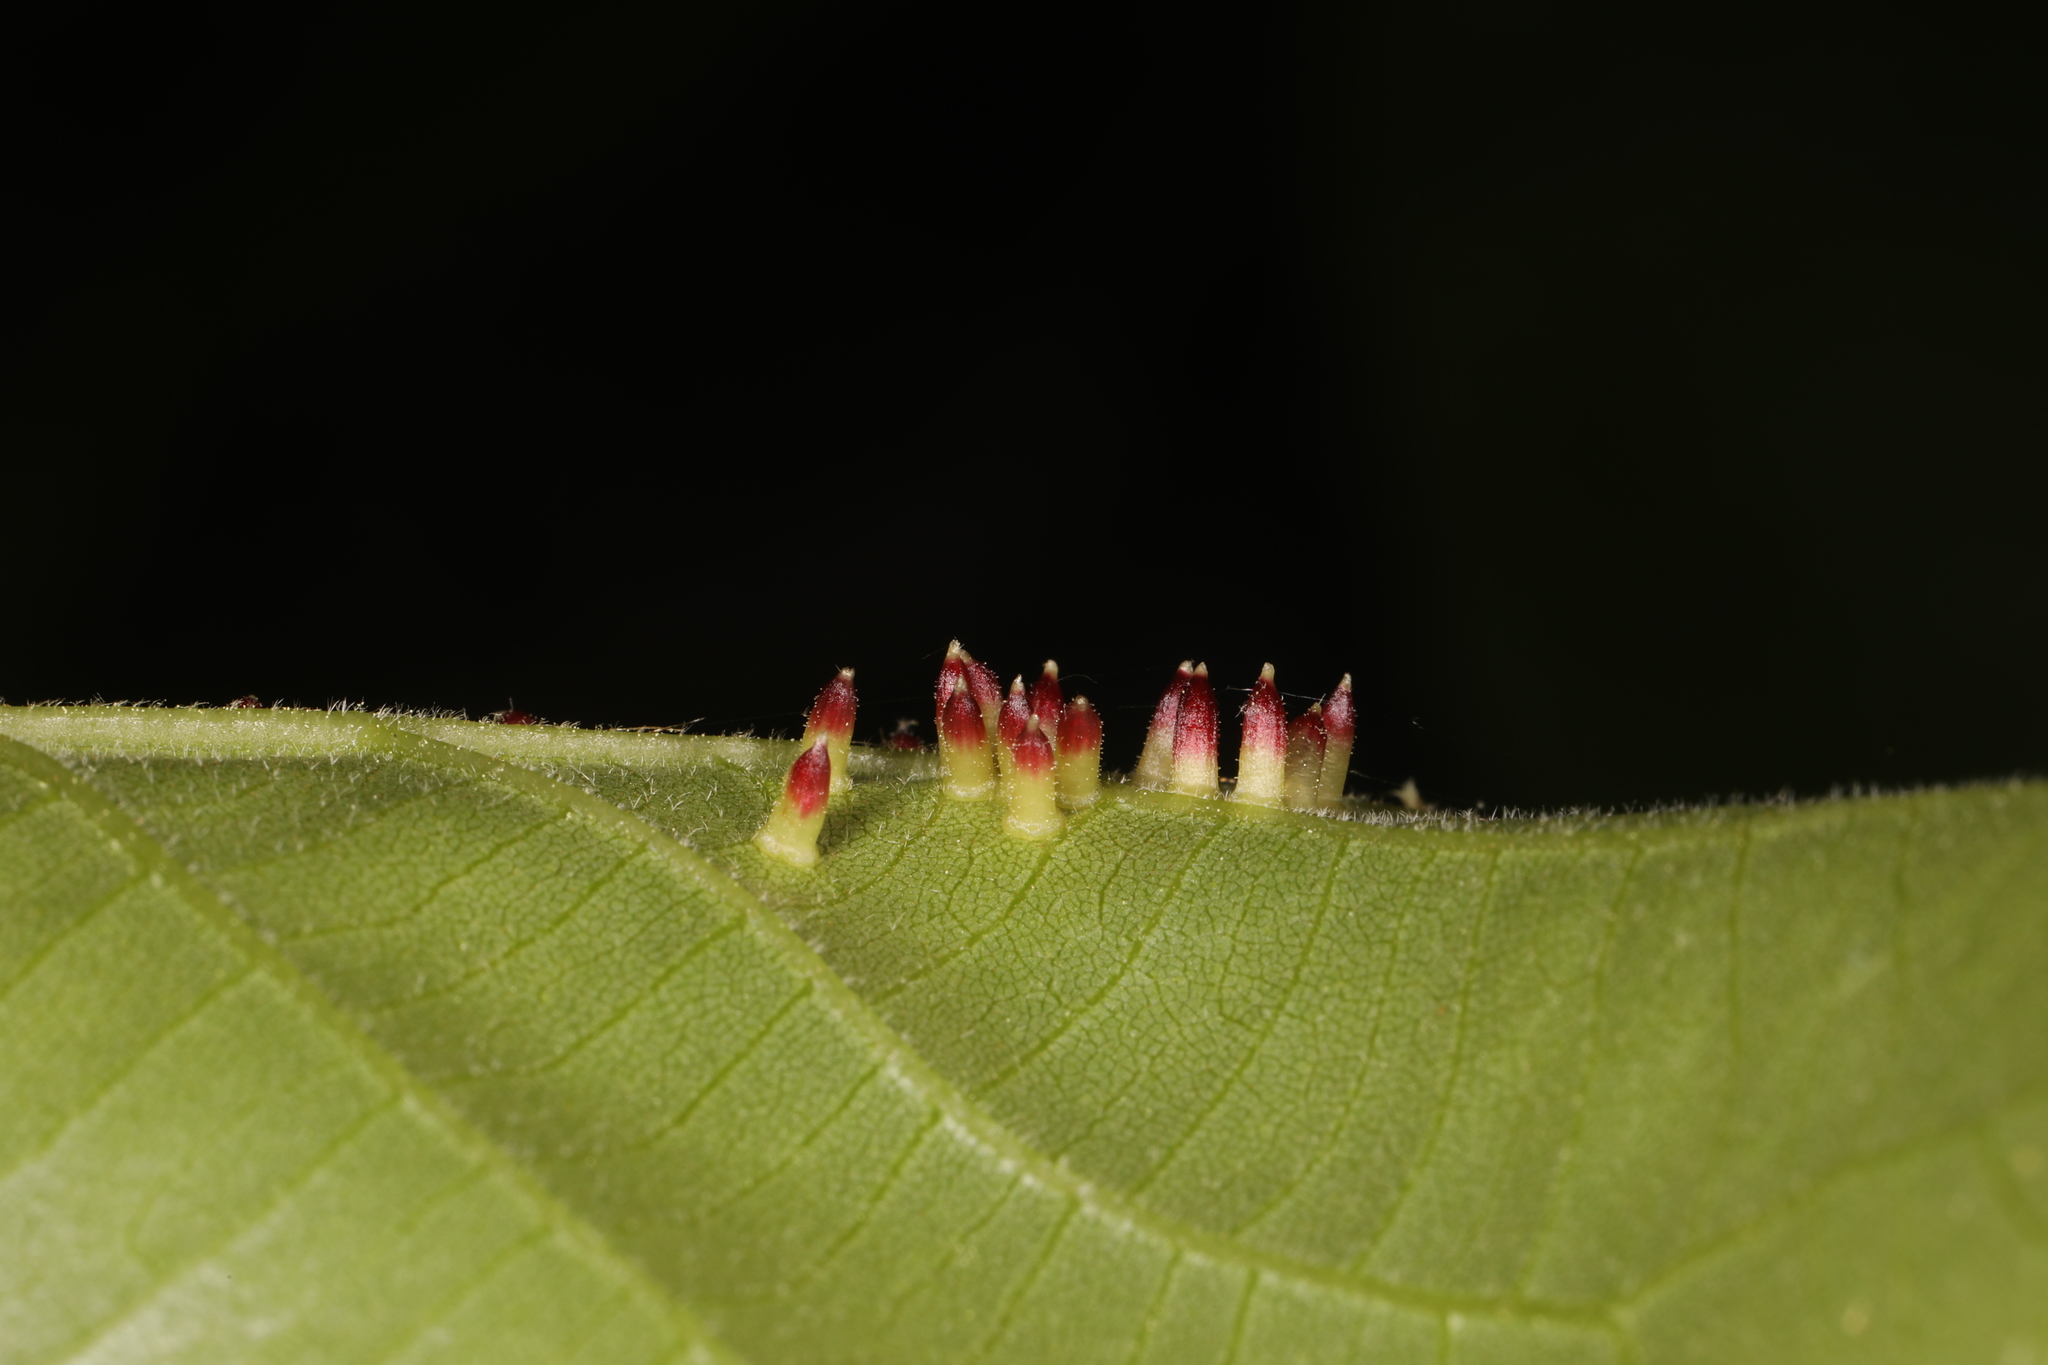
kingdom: Animalia
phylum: Arthropoda
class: Insecta
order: Diptera
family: Cecidomyiidae
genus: Caryomyia
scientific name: Caryomyia striolata
